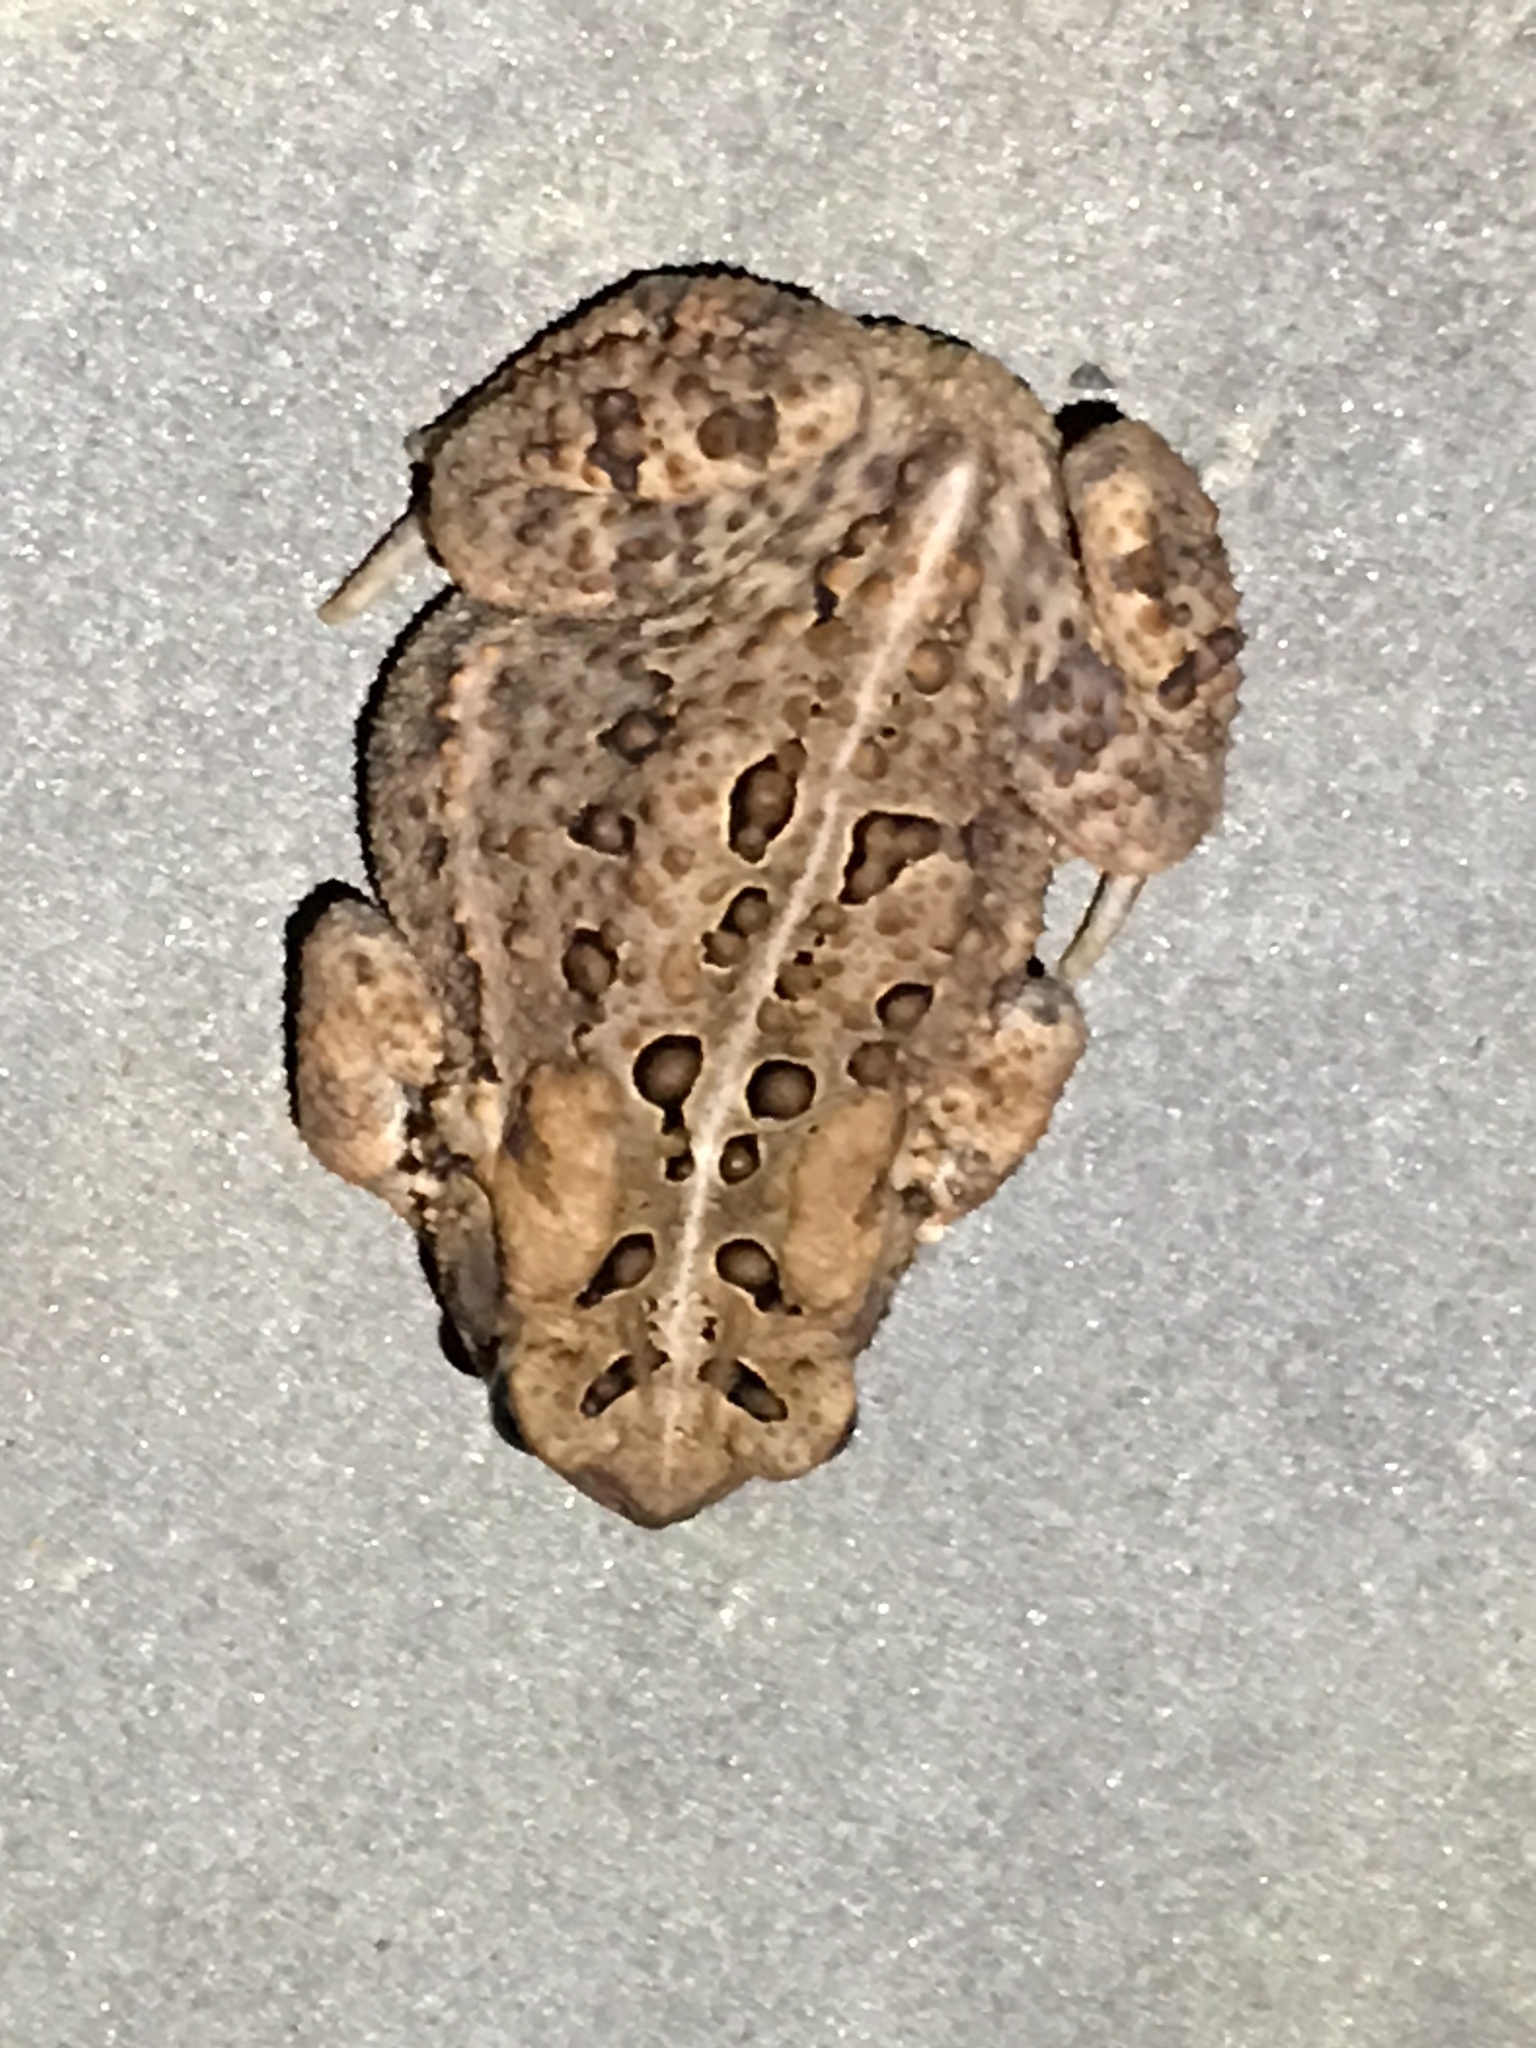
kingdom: Animalia
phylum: Chordata
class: Amphibia
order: Anura
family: Bufonidae
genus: Anaxyrus
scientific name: Anaxyrus americanus
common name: American toad
